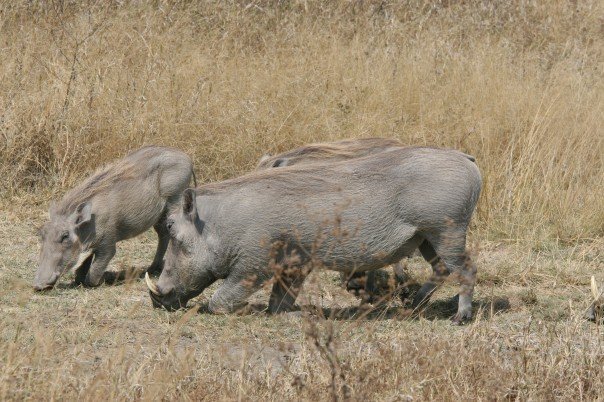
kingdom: Animalia
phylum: Chordata
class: Mammalia
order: Artiodactyla
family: Suidae
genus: Phacochoerus
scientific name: Phacochoerus africanus
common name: Common warthog
